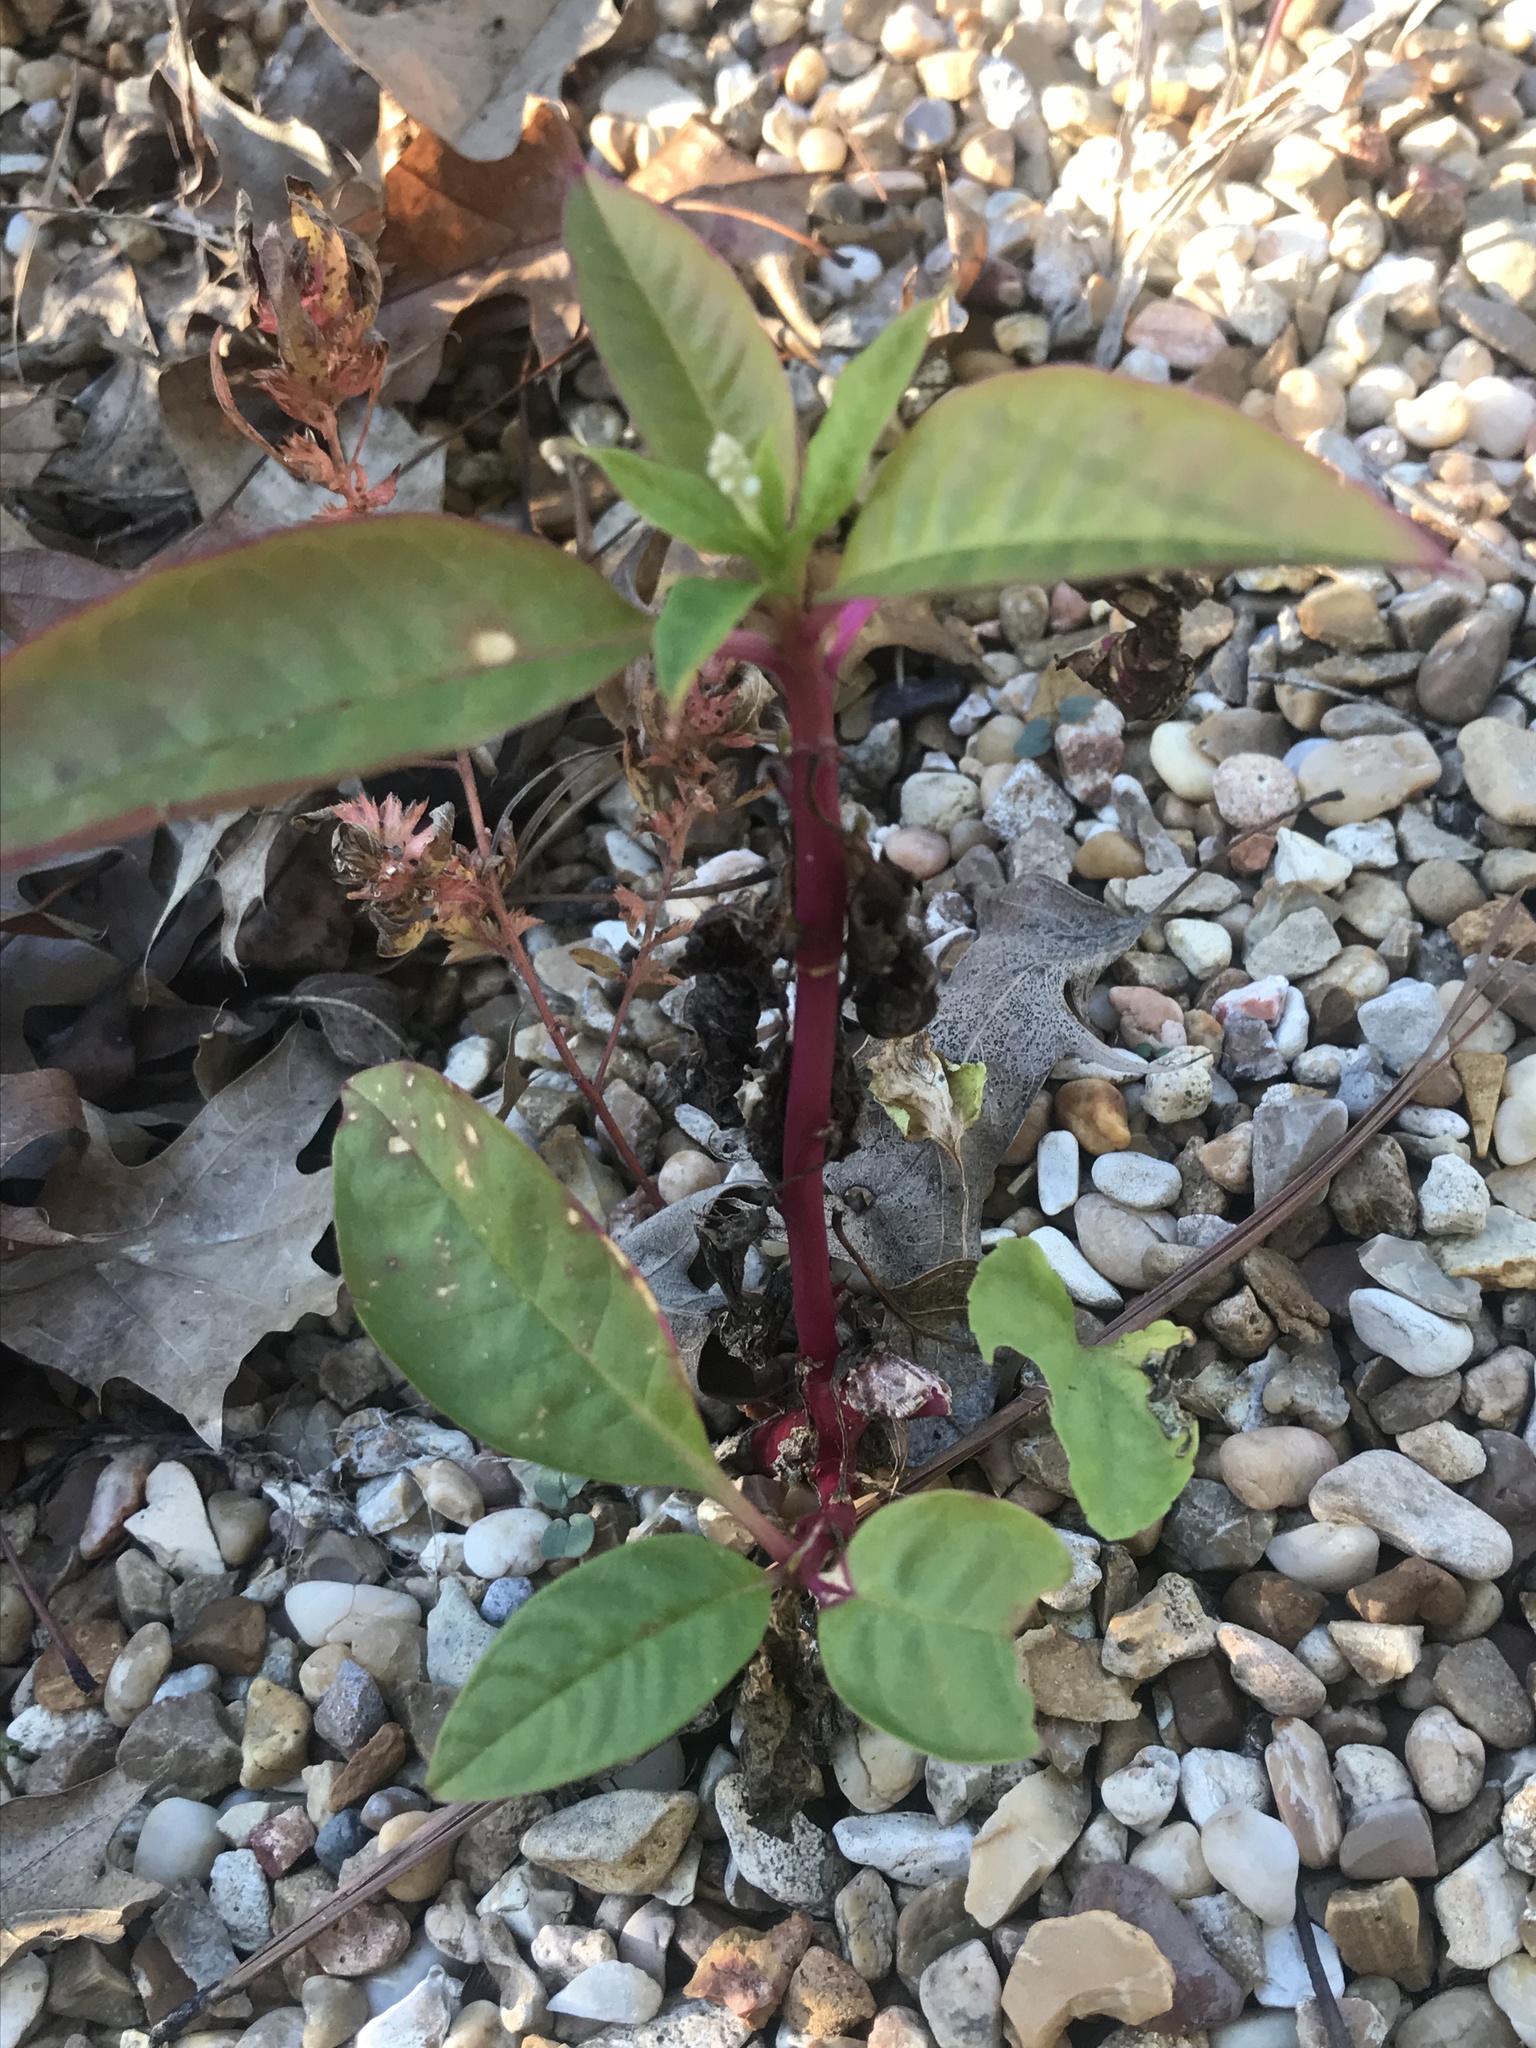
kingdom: Plantae
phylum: Tracheophyta
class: Magnoliopsida
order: Caryophyllales
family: Phytolaccaceae
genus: Phytolacca
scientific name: Phytolacca americana
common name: American pokeweed
